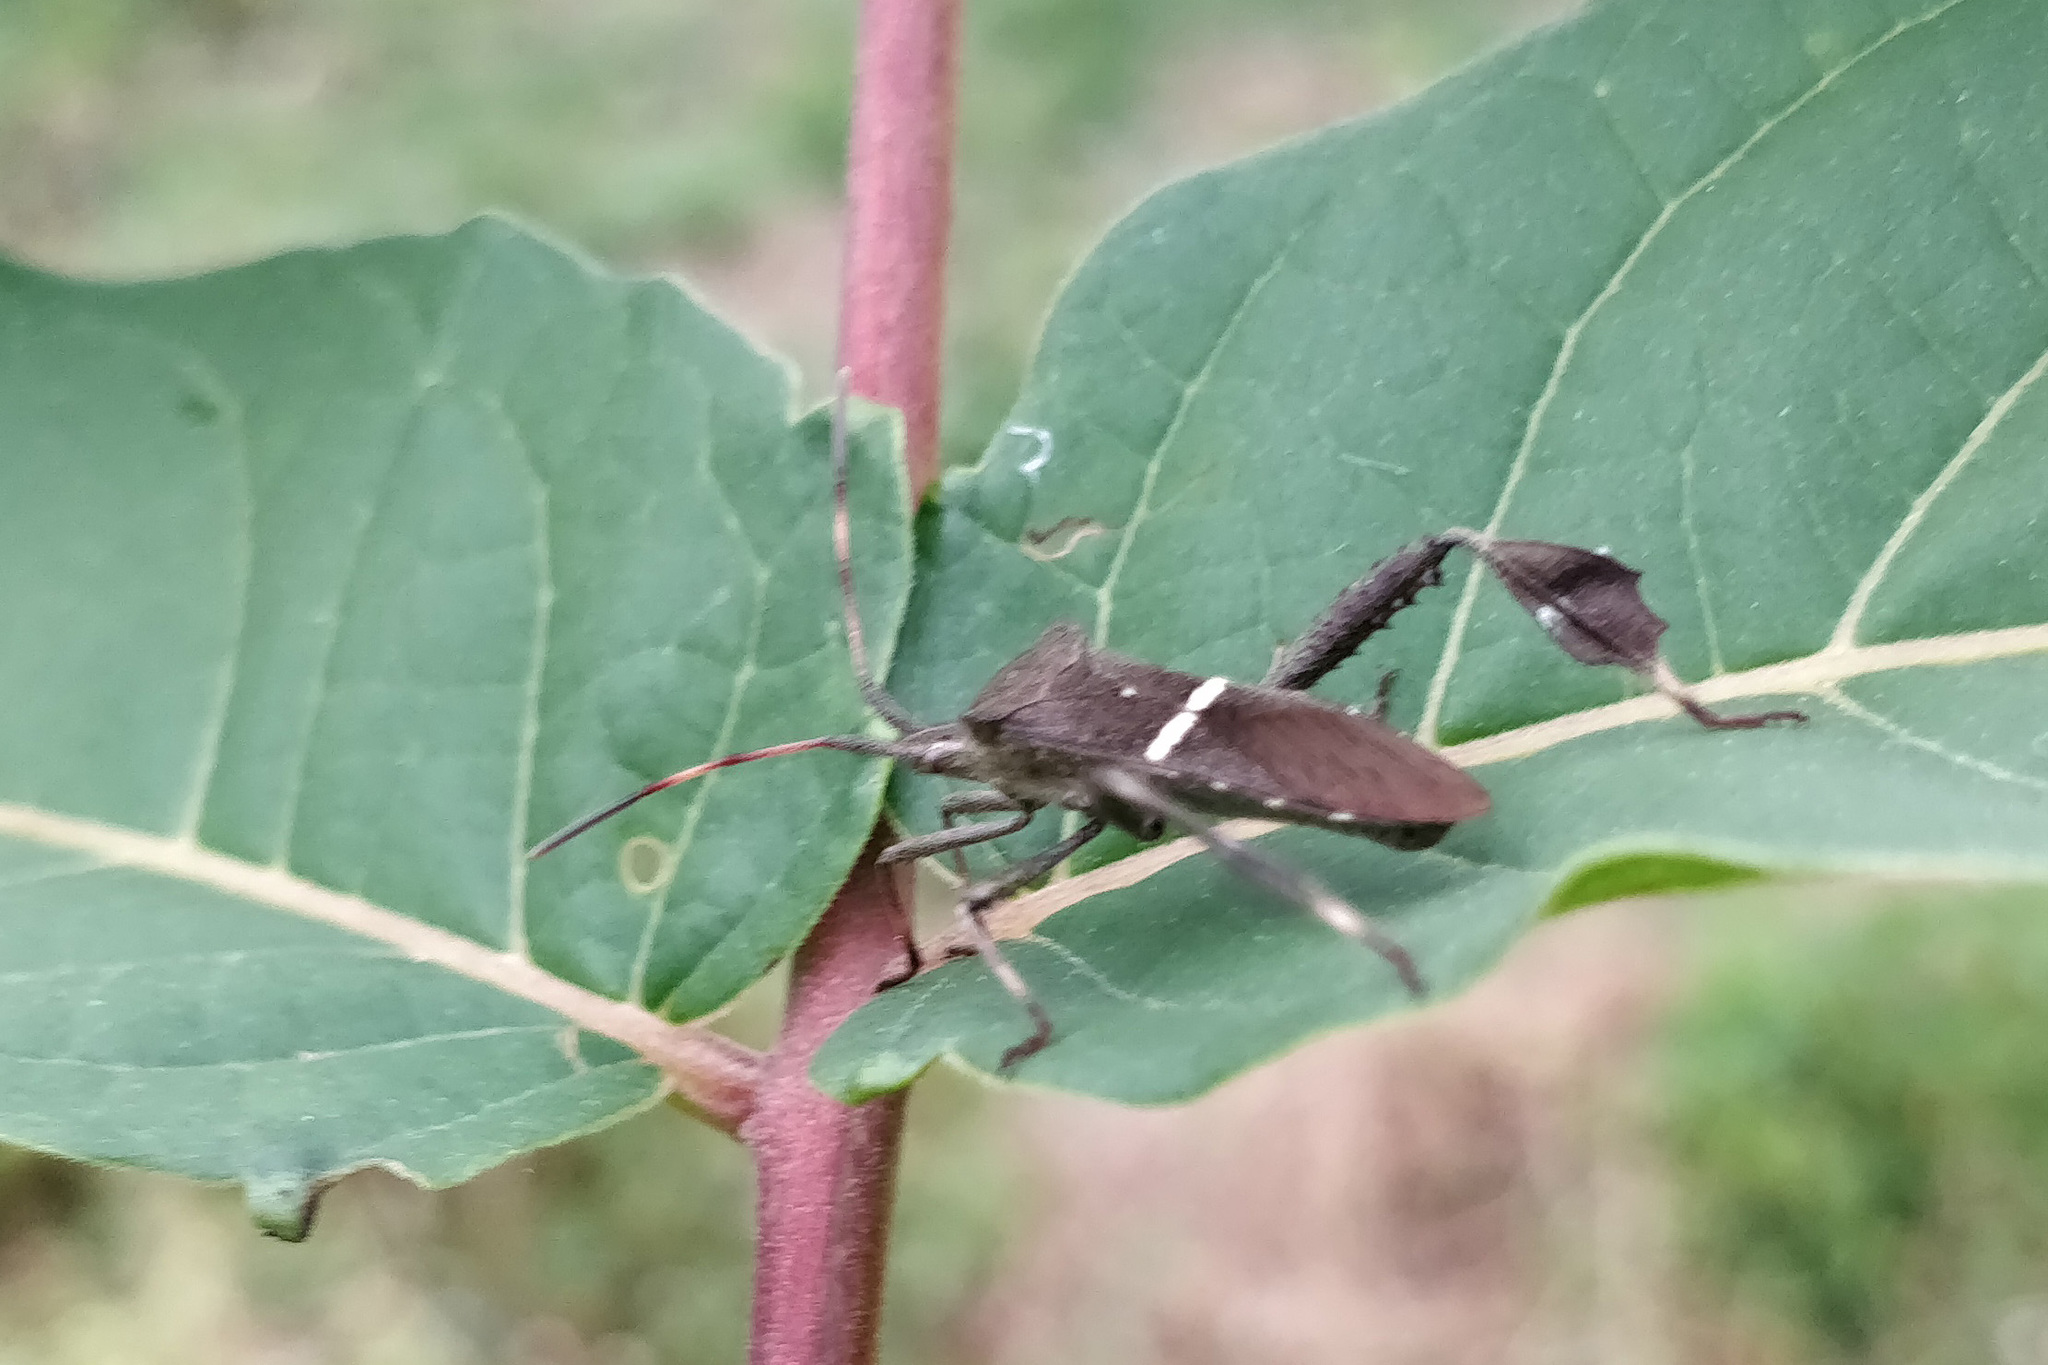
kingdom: Animalia
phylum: Arthropoda
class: Insecta
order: Hemiptera
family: Coreidae
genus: Leptoglossus
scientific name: Leptoglossus phyllopus
